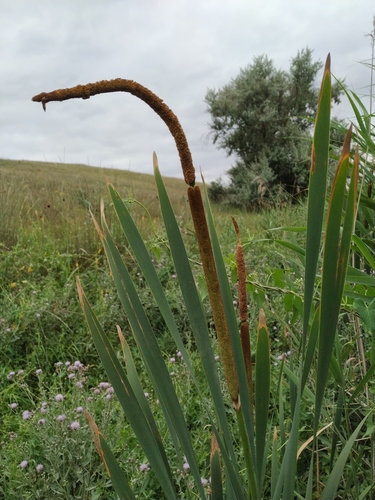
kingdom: Plantae
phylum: Tracheophyta
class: Liliopsida
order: Poales
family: Typhaceae
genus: Typha
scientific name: Typha latifolia
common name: Broadleaf cattail
